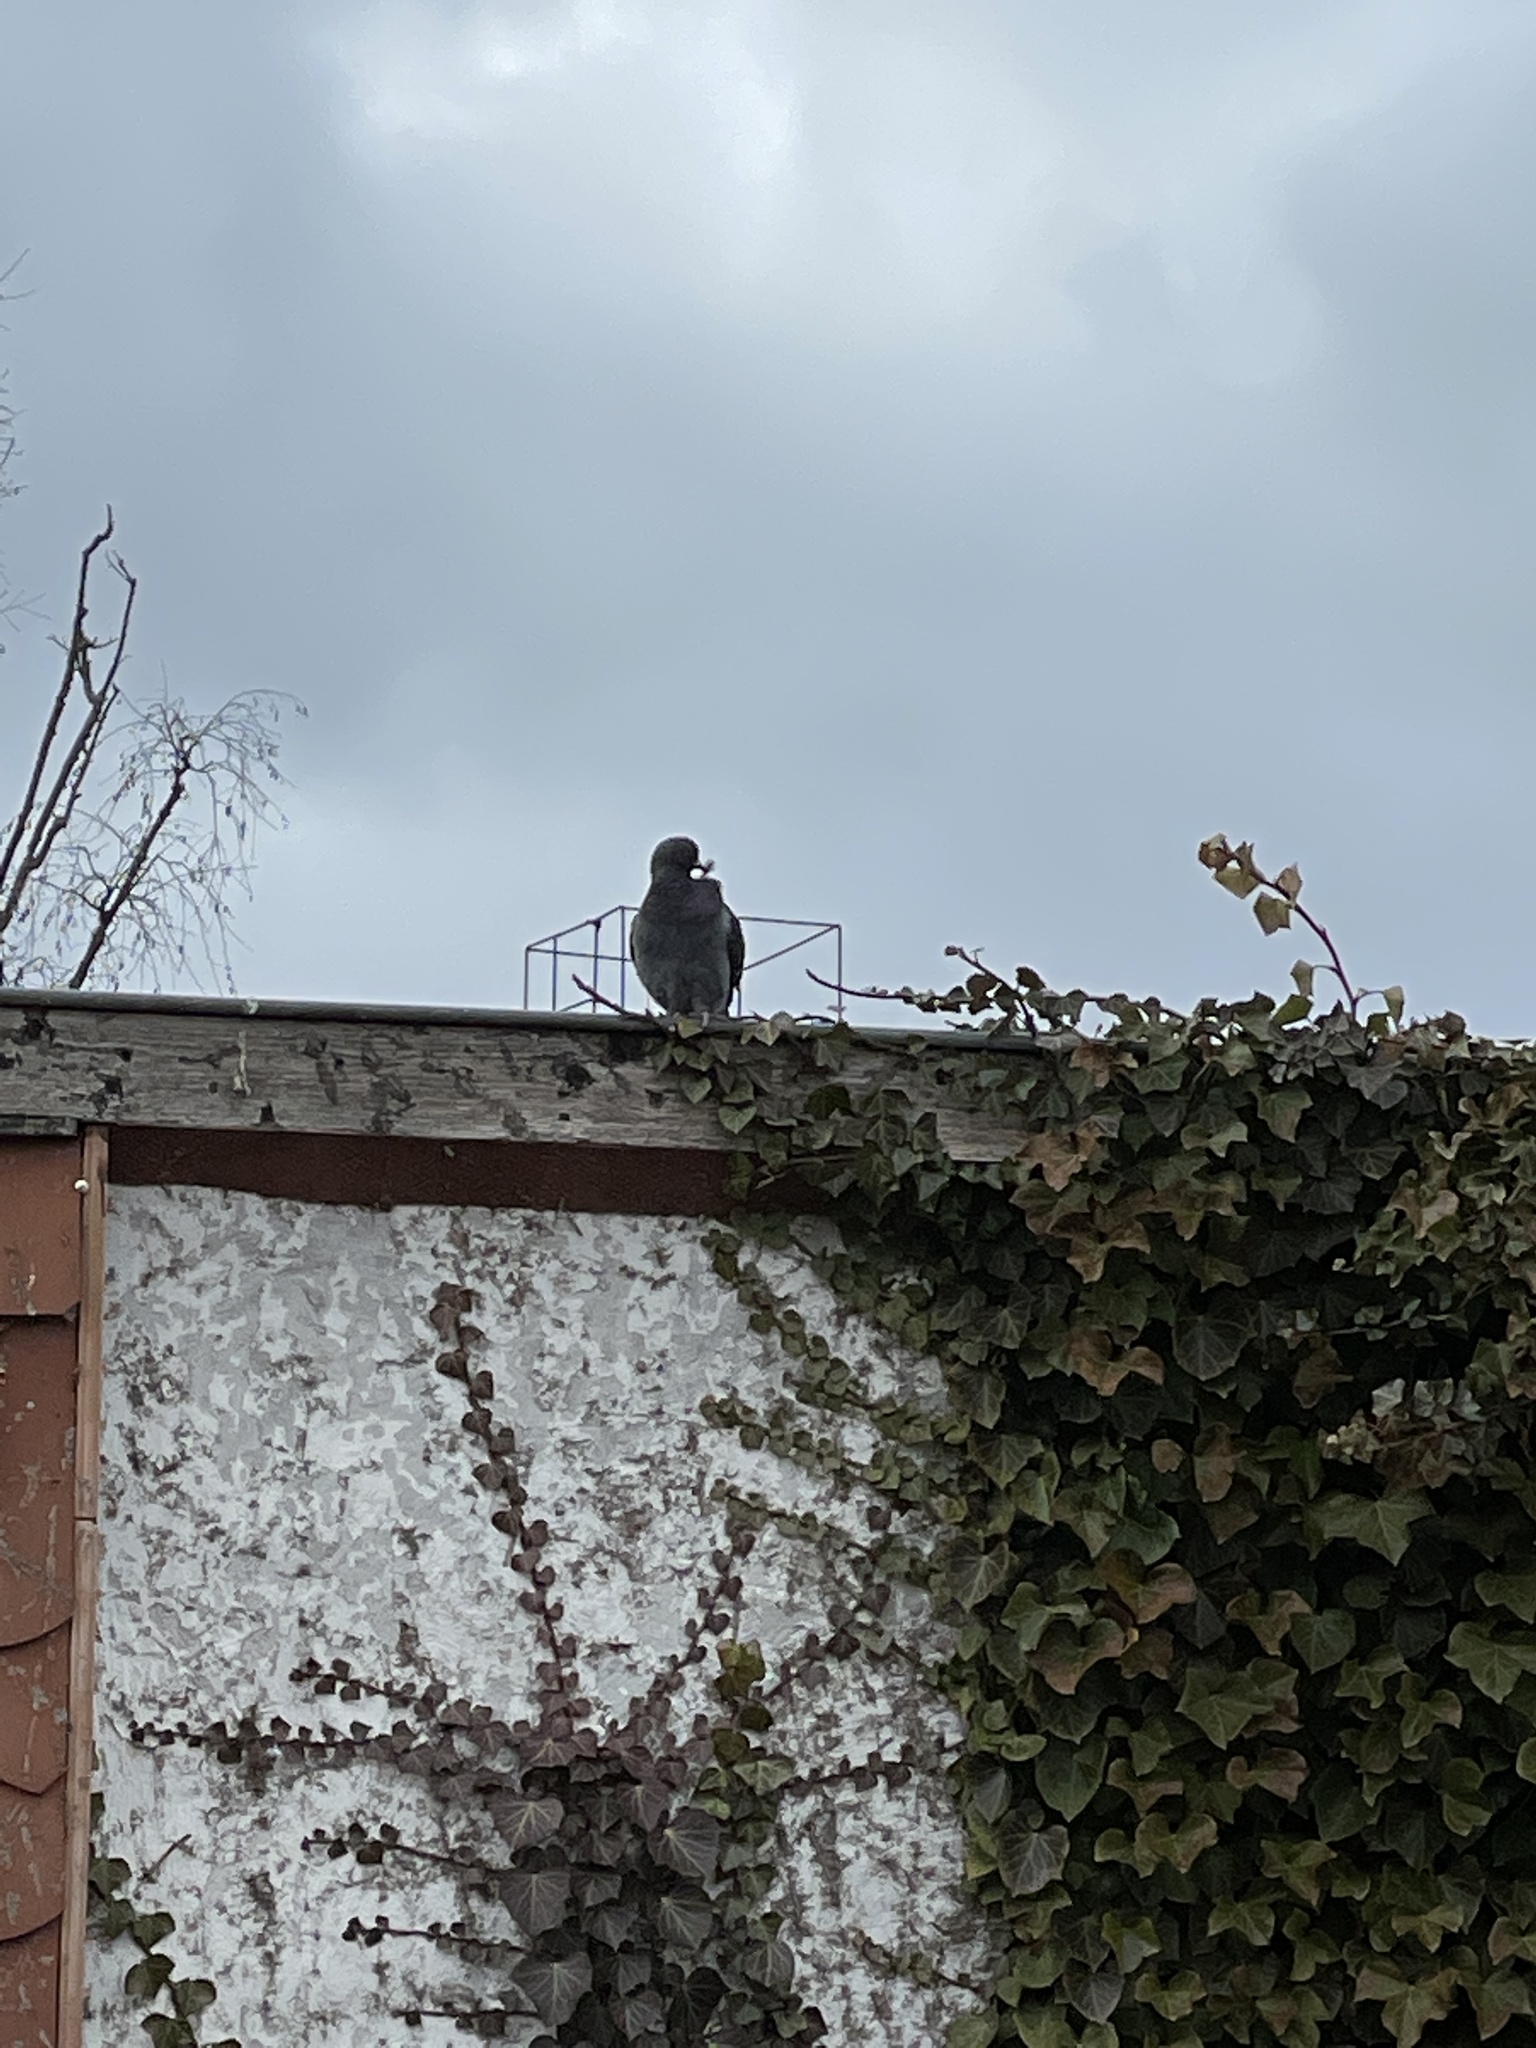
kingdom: Animalia
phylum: Chordata
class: Aves
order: Columbiformes
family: Columbidae
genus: Columba
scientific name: Columba livia
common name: Rock pigeon
